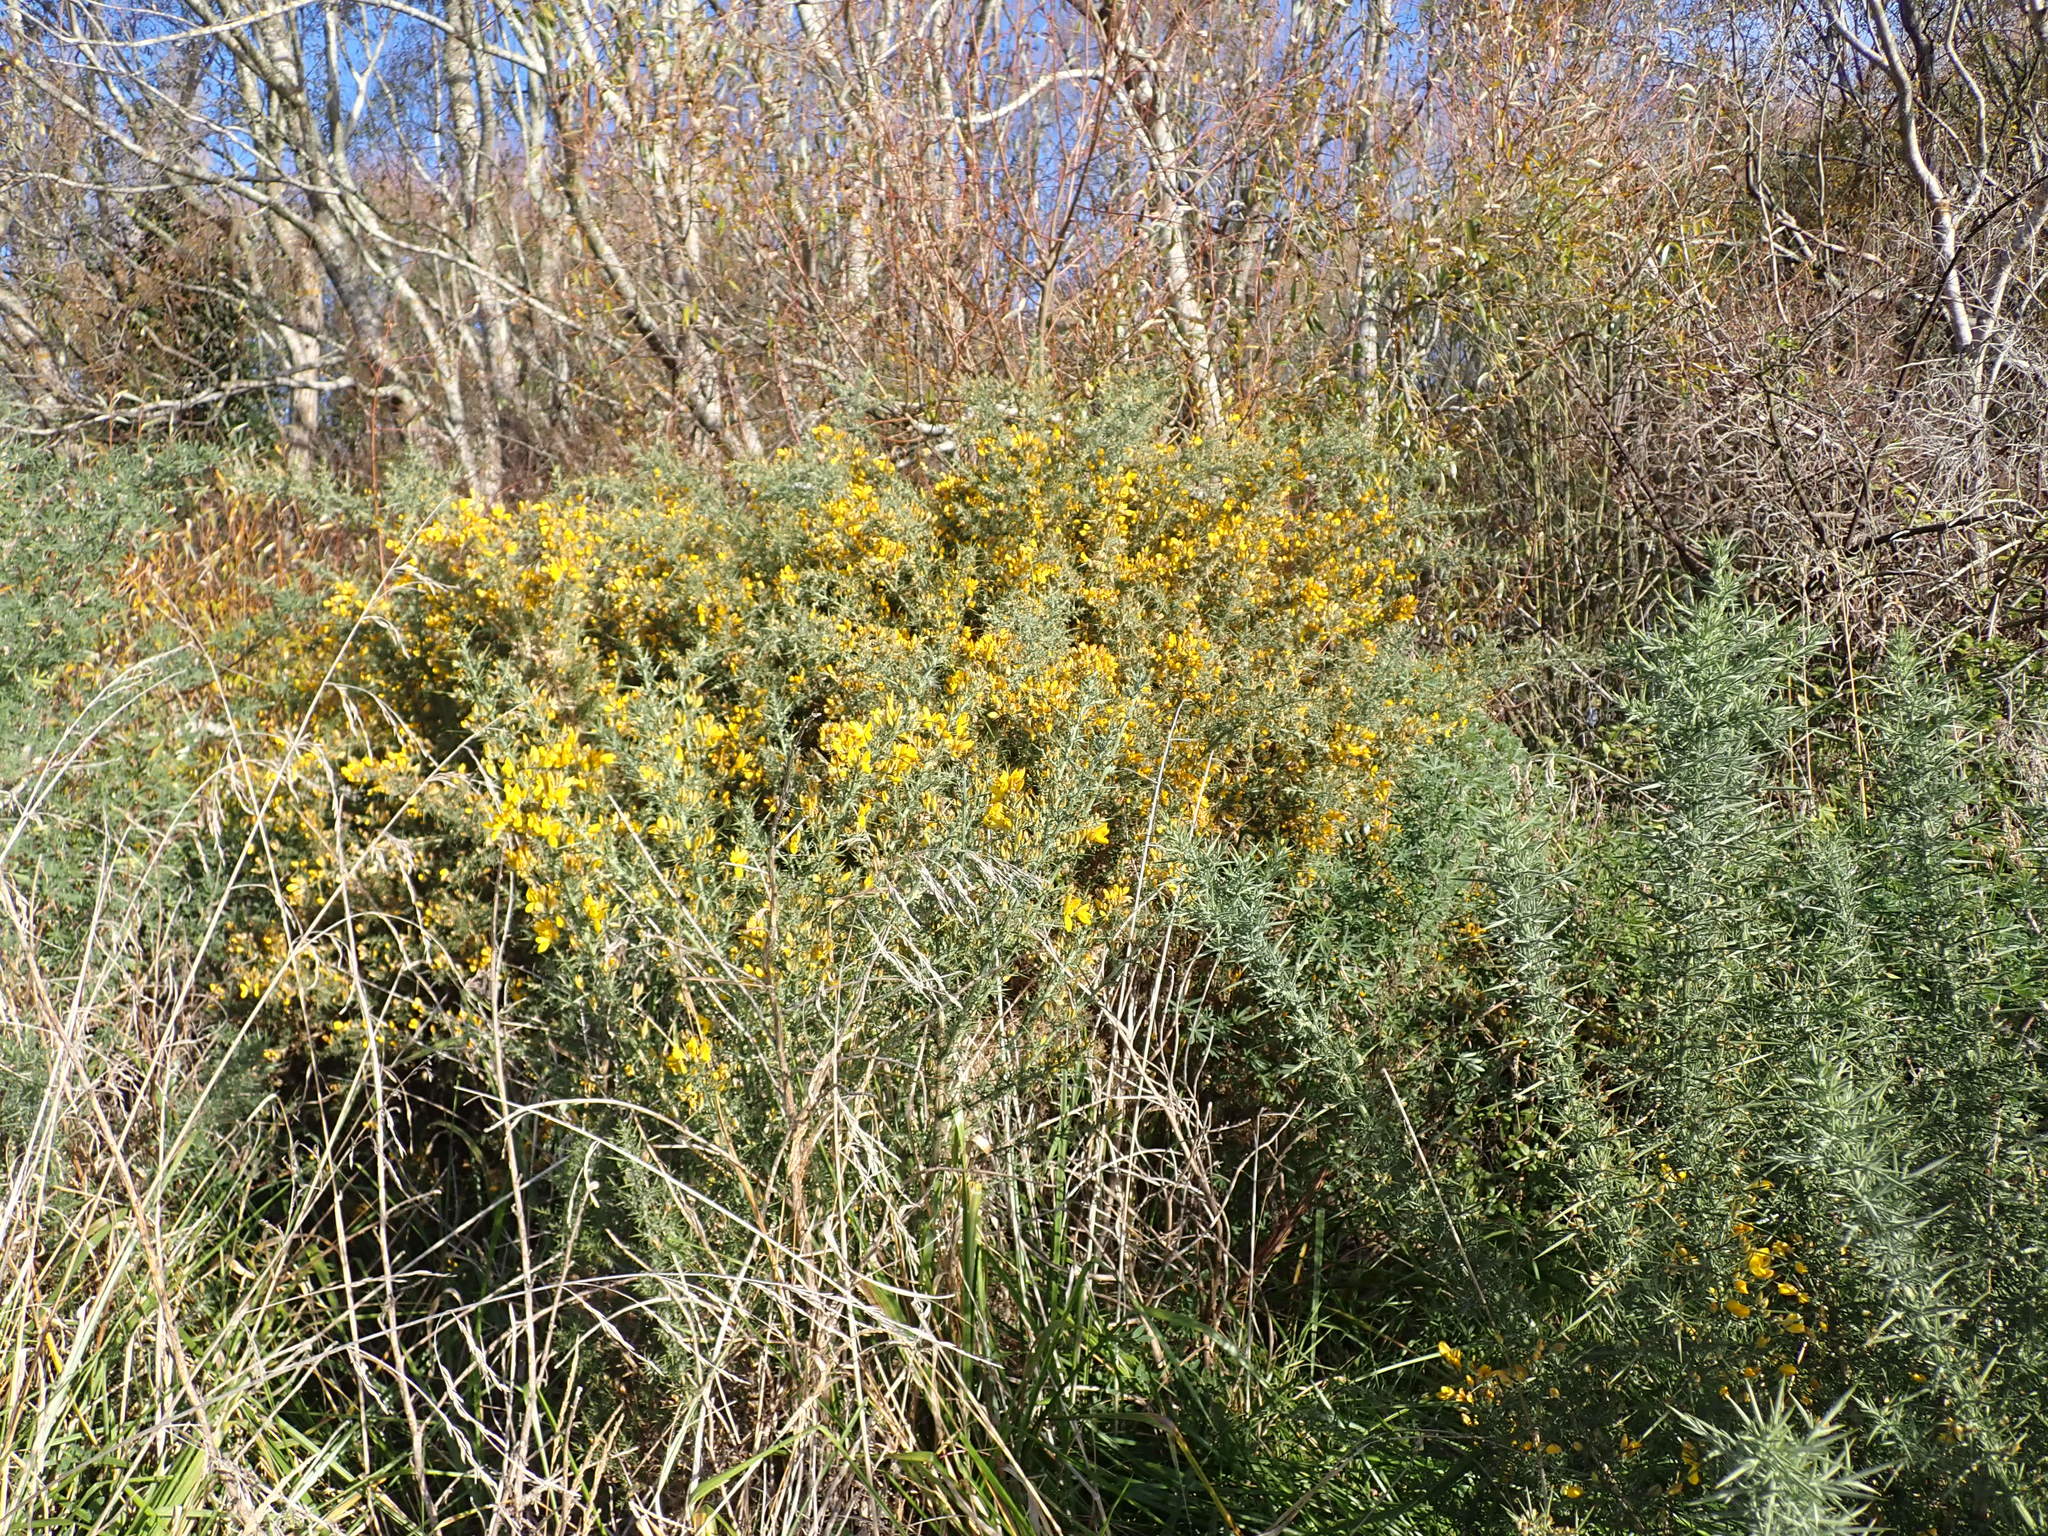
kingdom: Plantae
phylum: Tracheophyta
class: Magnoliopsida
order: Fabales
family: Fabaceae
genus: Ulex
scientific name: Ulex europaeus
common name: Common gorse
